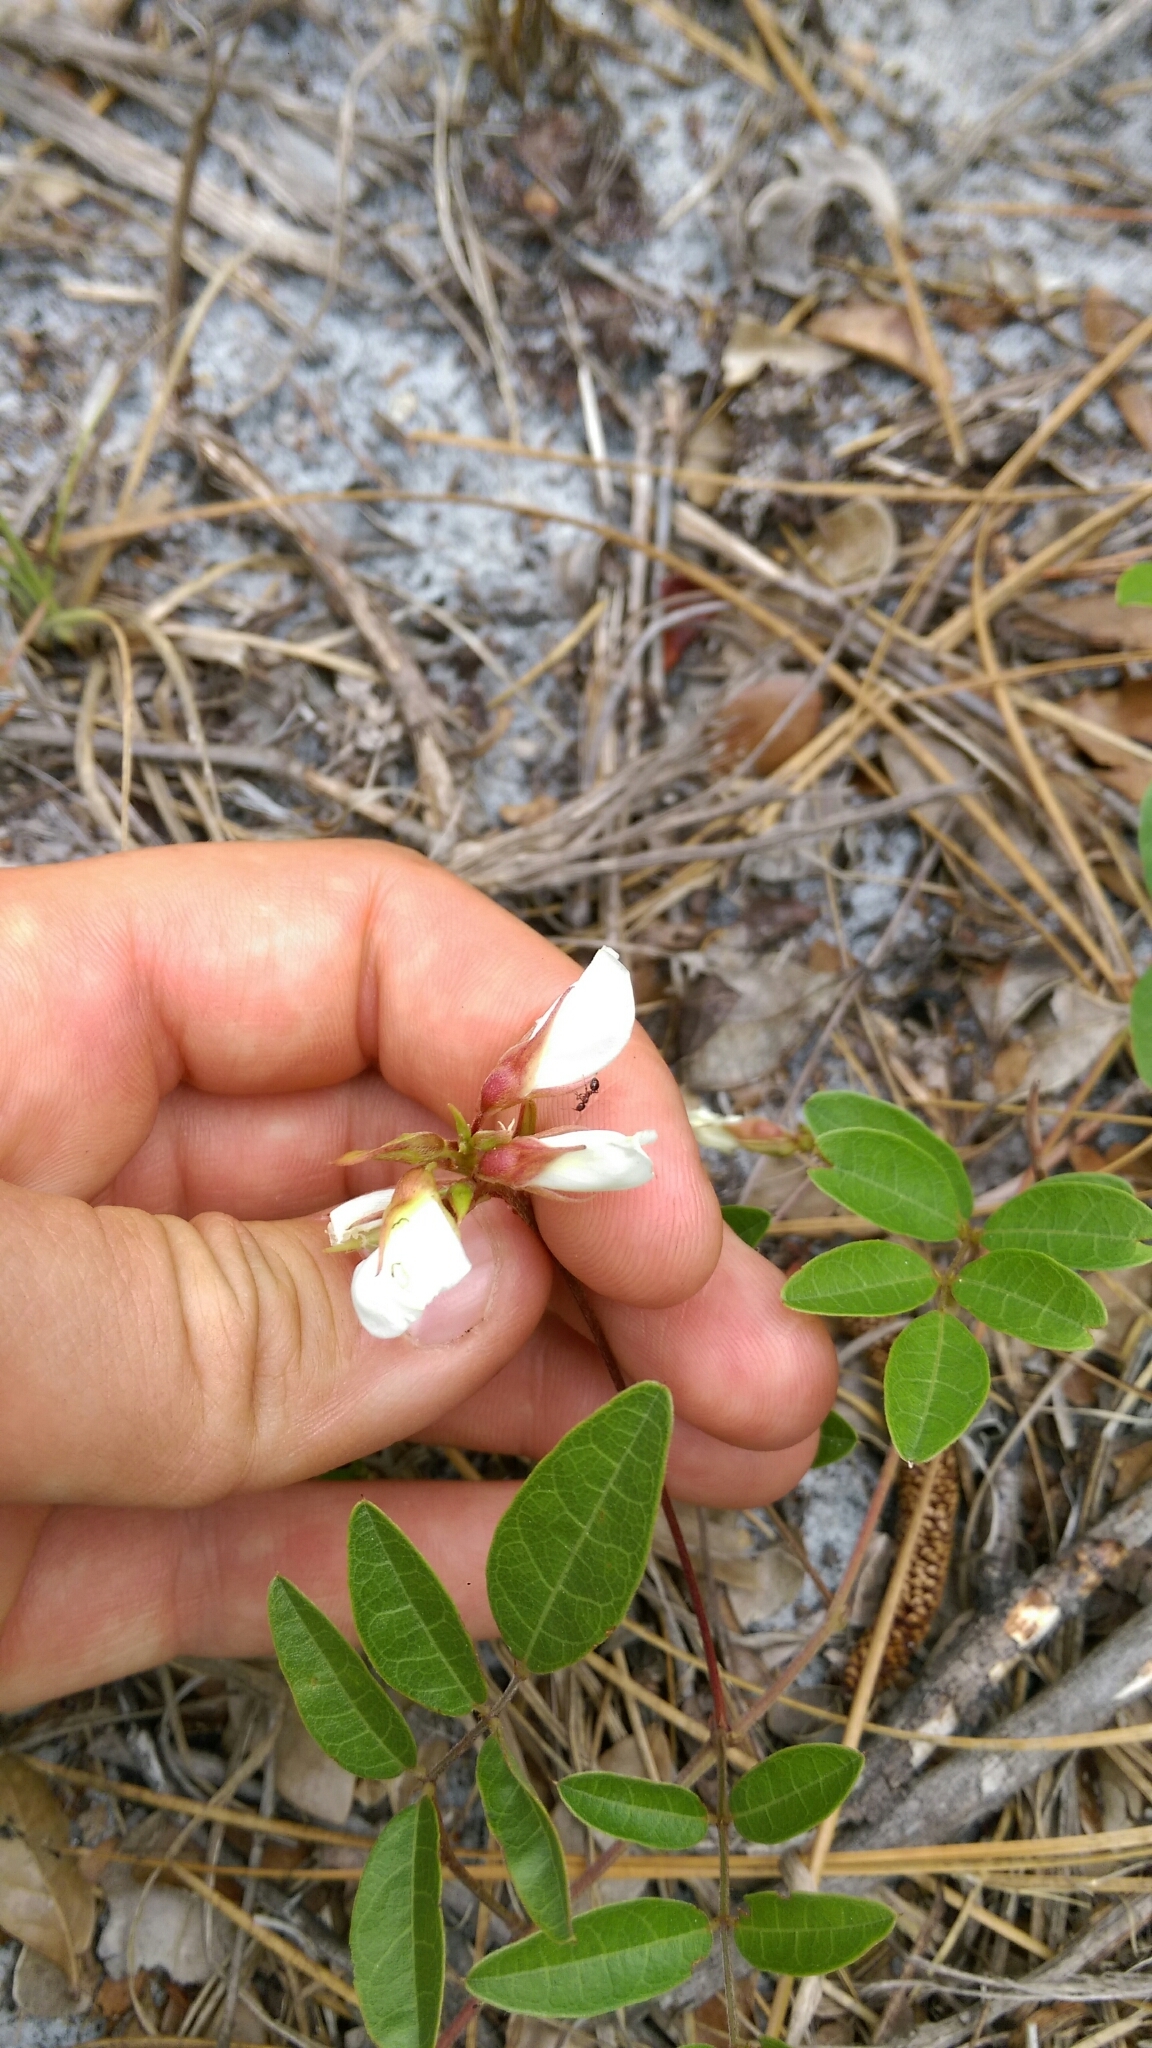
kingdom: Plantae
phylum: Tracheophyta
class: Magnoliopsida
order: Fabales
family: Fabaceae
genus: Galactia
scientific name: Galactia elliottii
